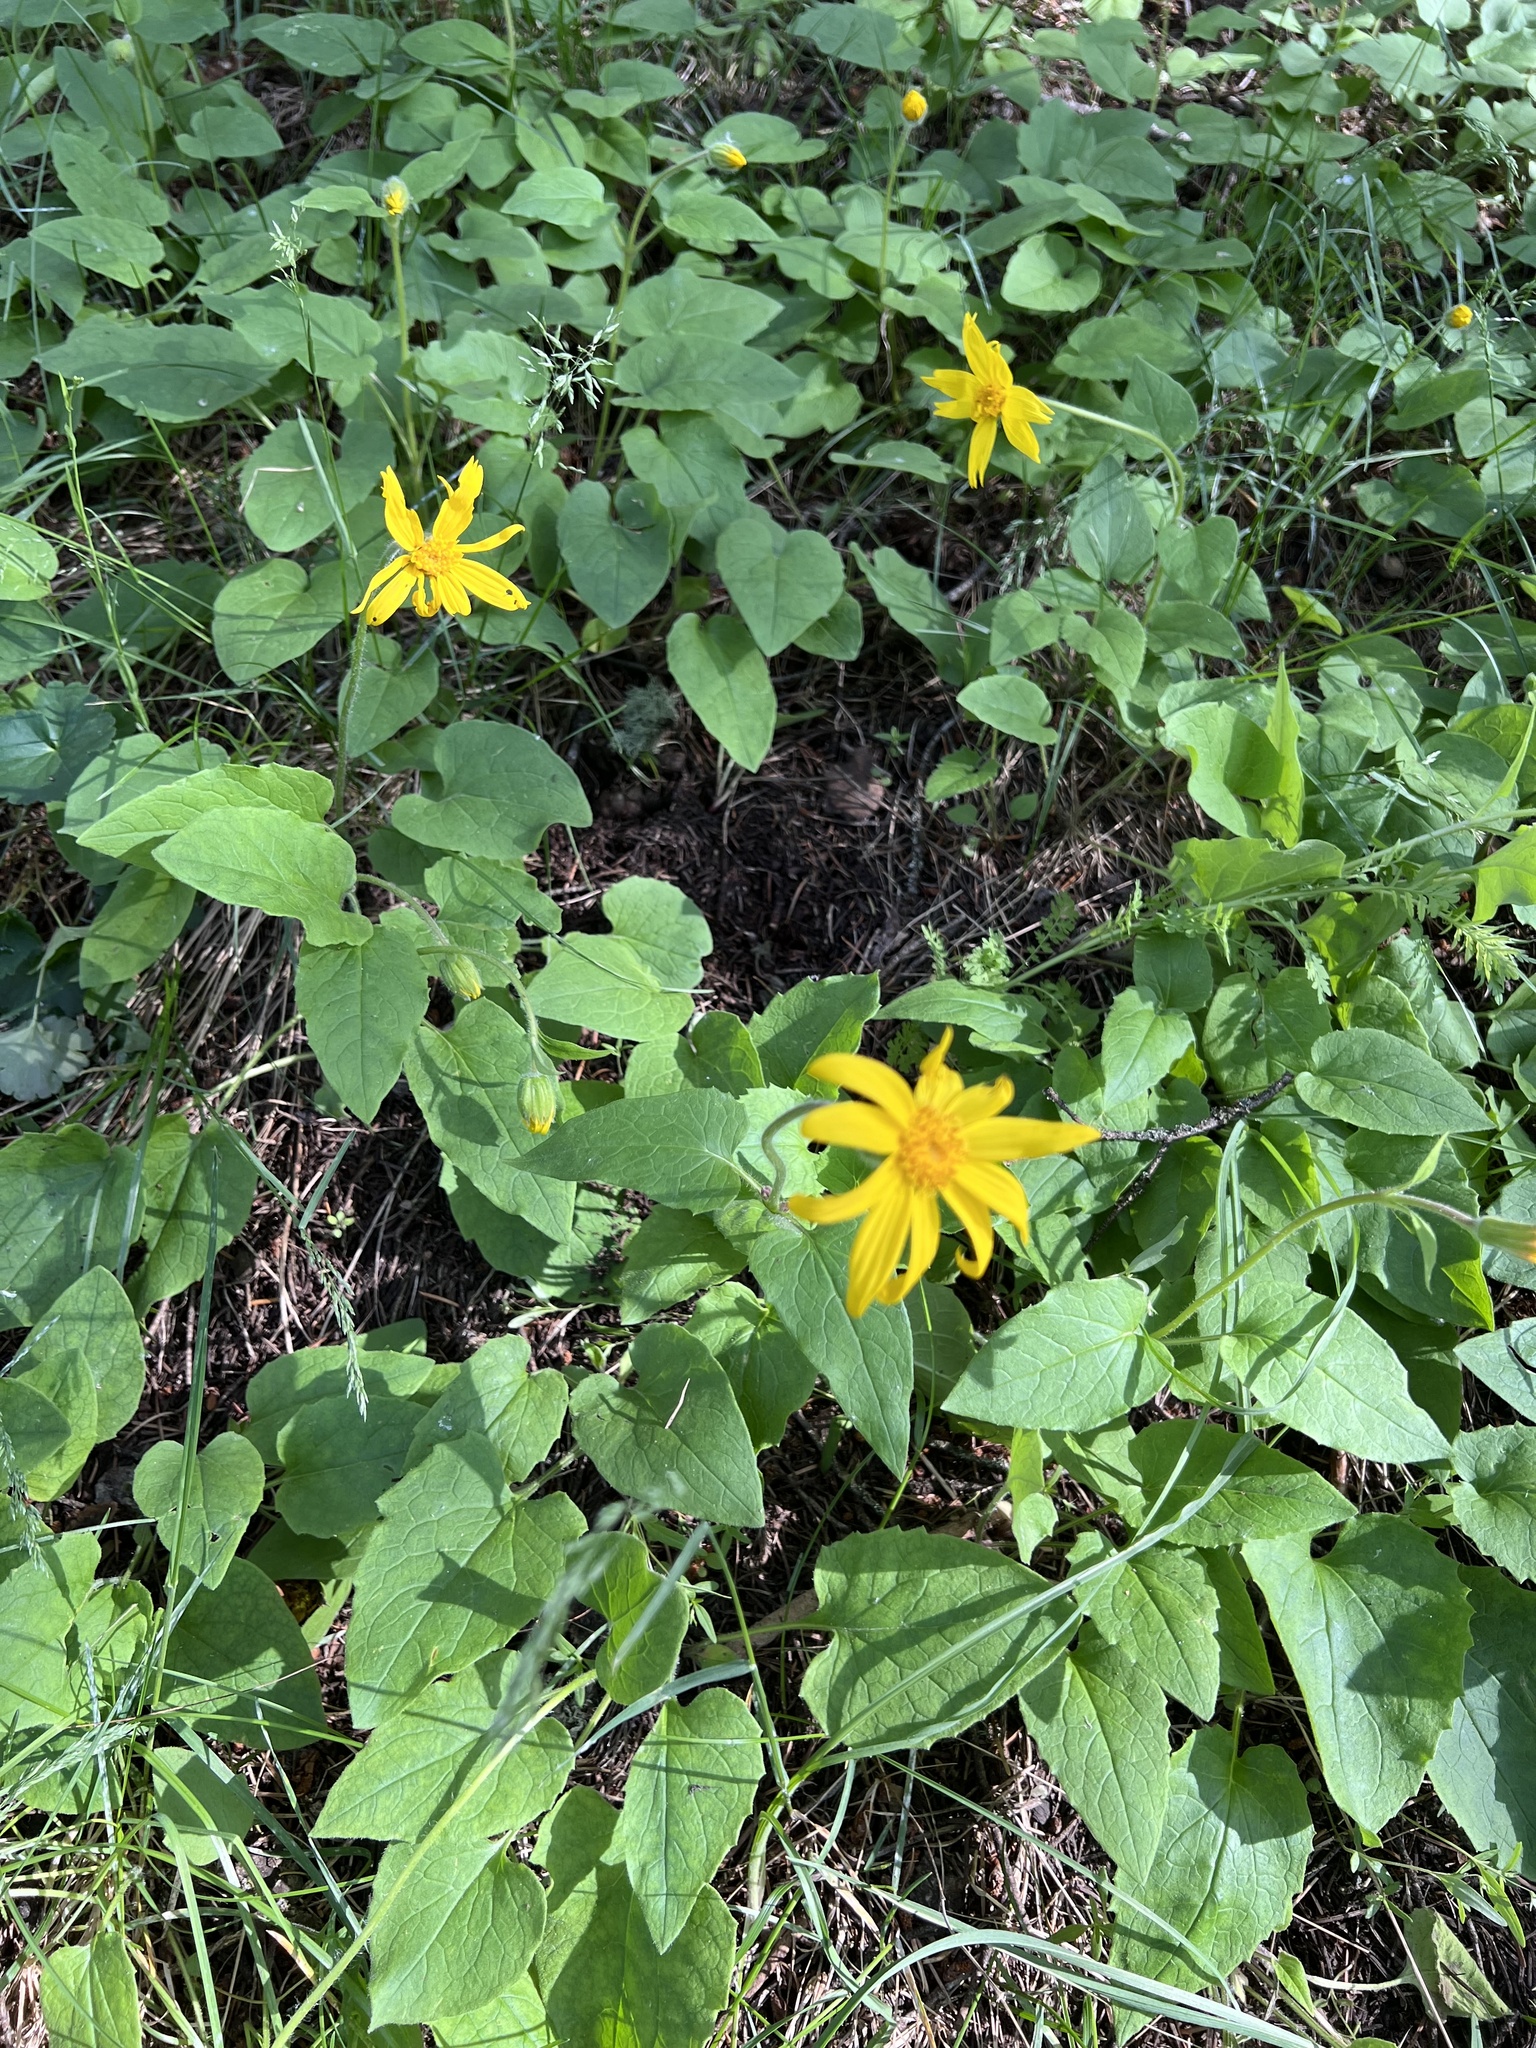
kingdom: Plantae
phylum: Tracheophyta
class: Magnoliopsida
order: Asterales
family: Asteraceae
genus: Arnica
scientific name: Arnica cordifolia
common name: Heart-leaf arnica
